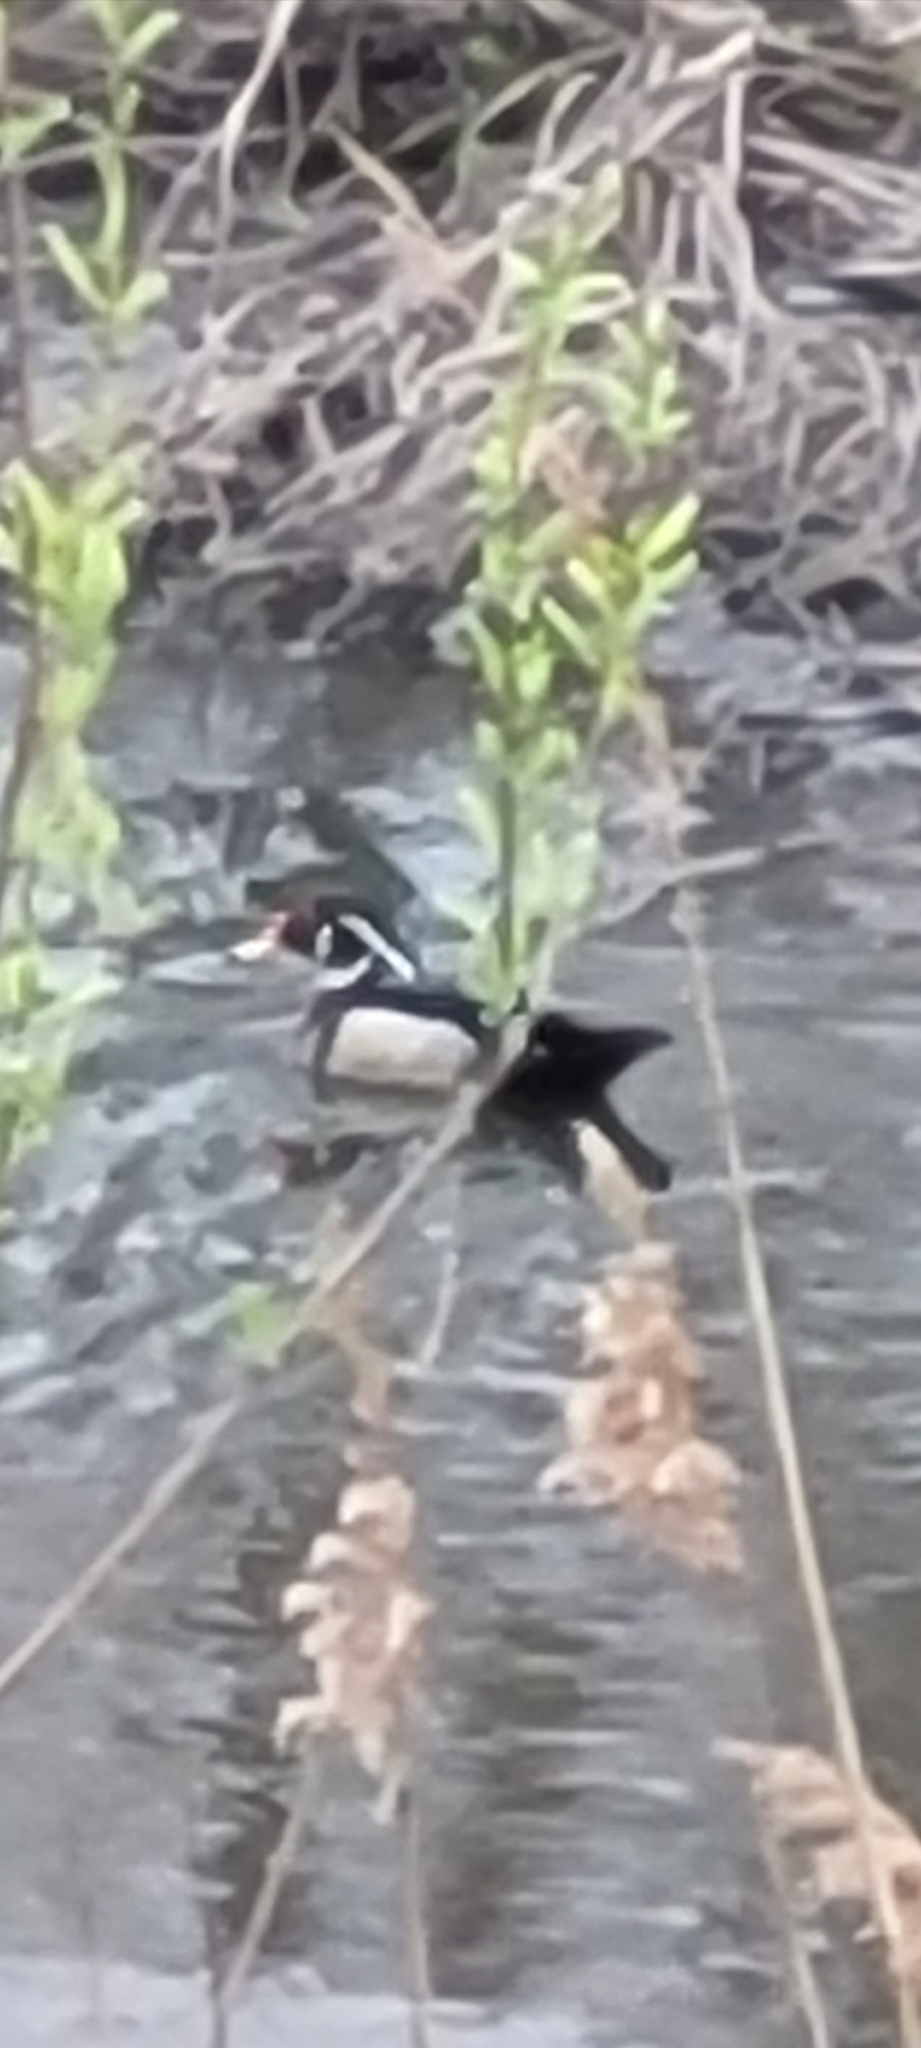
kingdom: Animalia
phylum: Chordata
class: Aves
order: Anseriformes
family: Anatidae
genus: Aix
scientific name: Aix sponsa
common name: Wood duck
